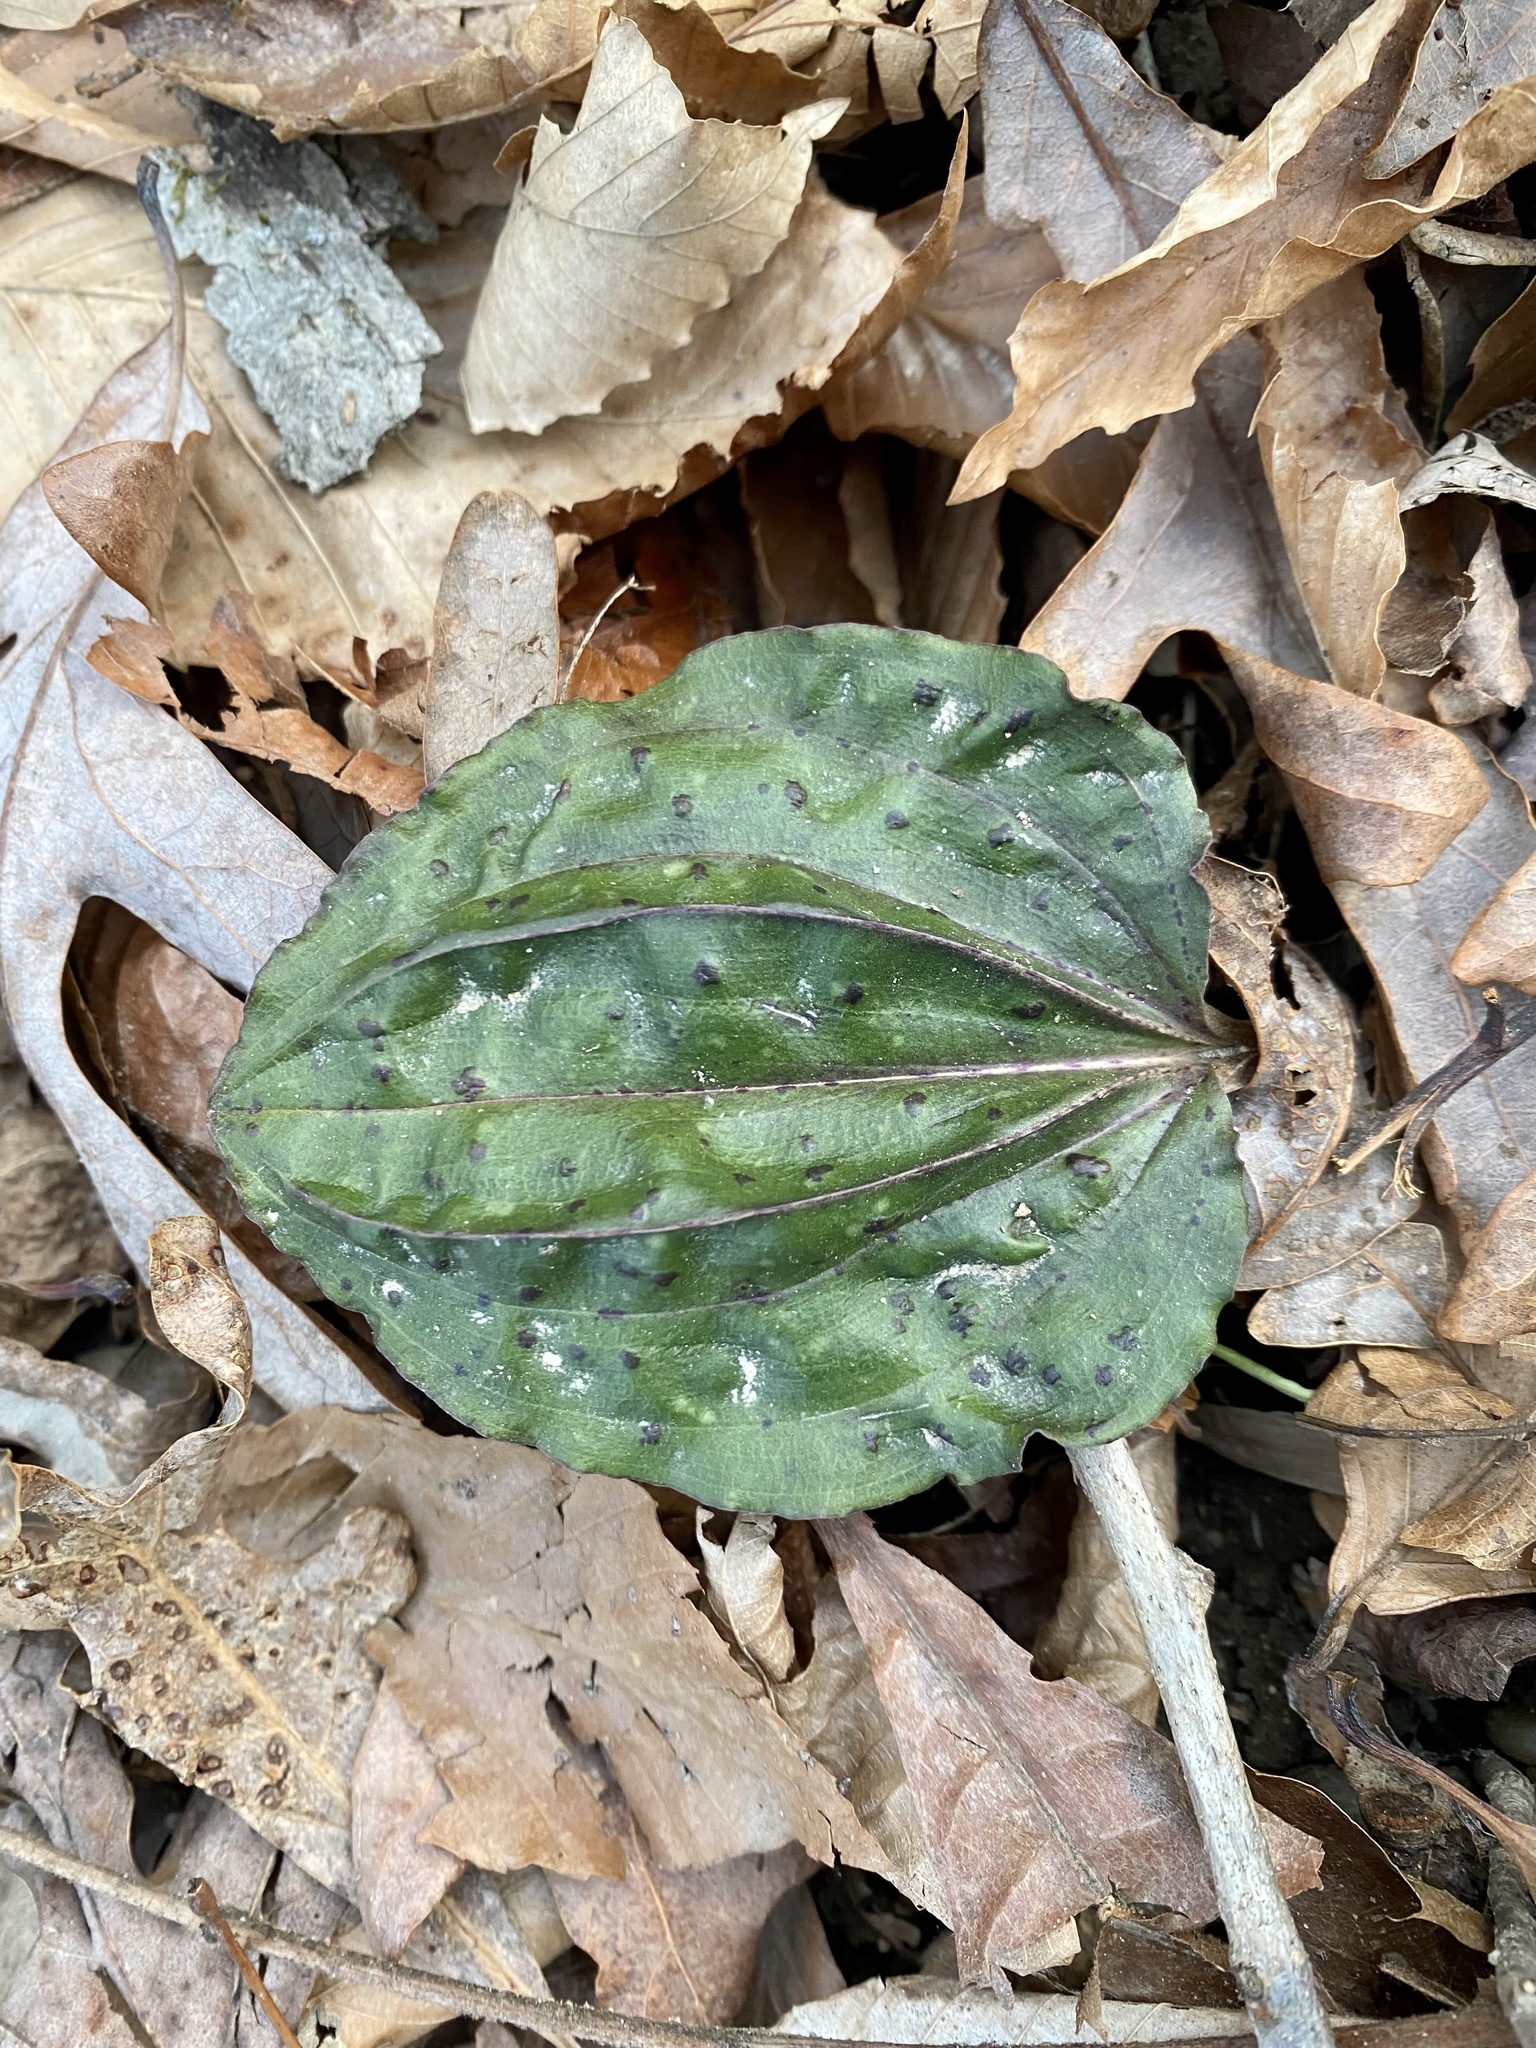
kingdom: Plantae
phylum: Tracheophyta
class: Liliopsida
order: Asparagales
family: Orchidaceae
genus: Tipularia
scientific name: Tipularia discolor
